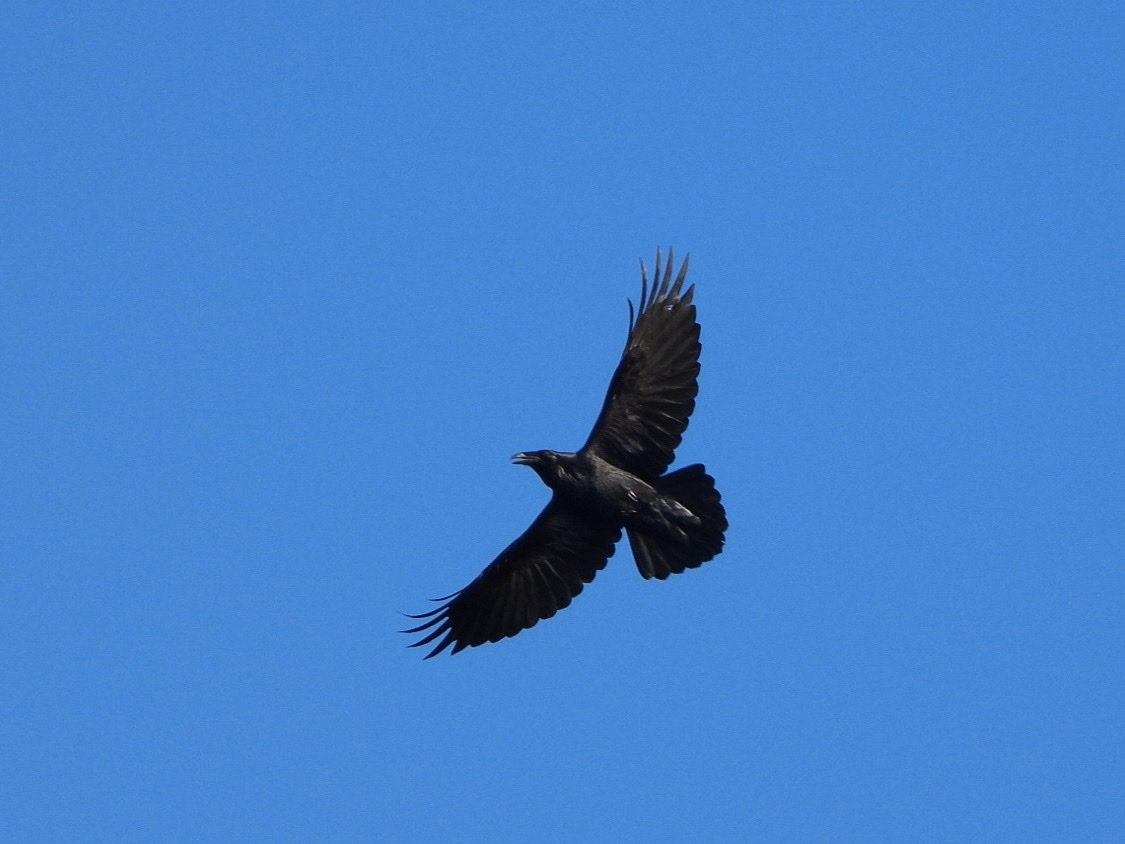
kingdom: Animalia
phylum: Chordata
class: Aves
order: Passeriformes
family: Corvidae
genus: Corvus
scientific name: Corvus corax
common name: Common raven
